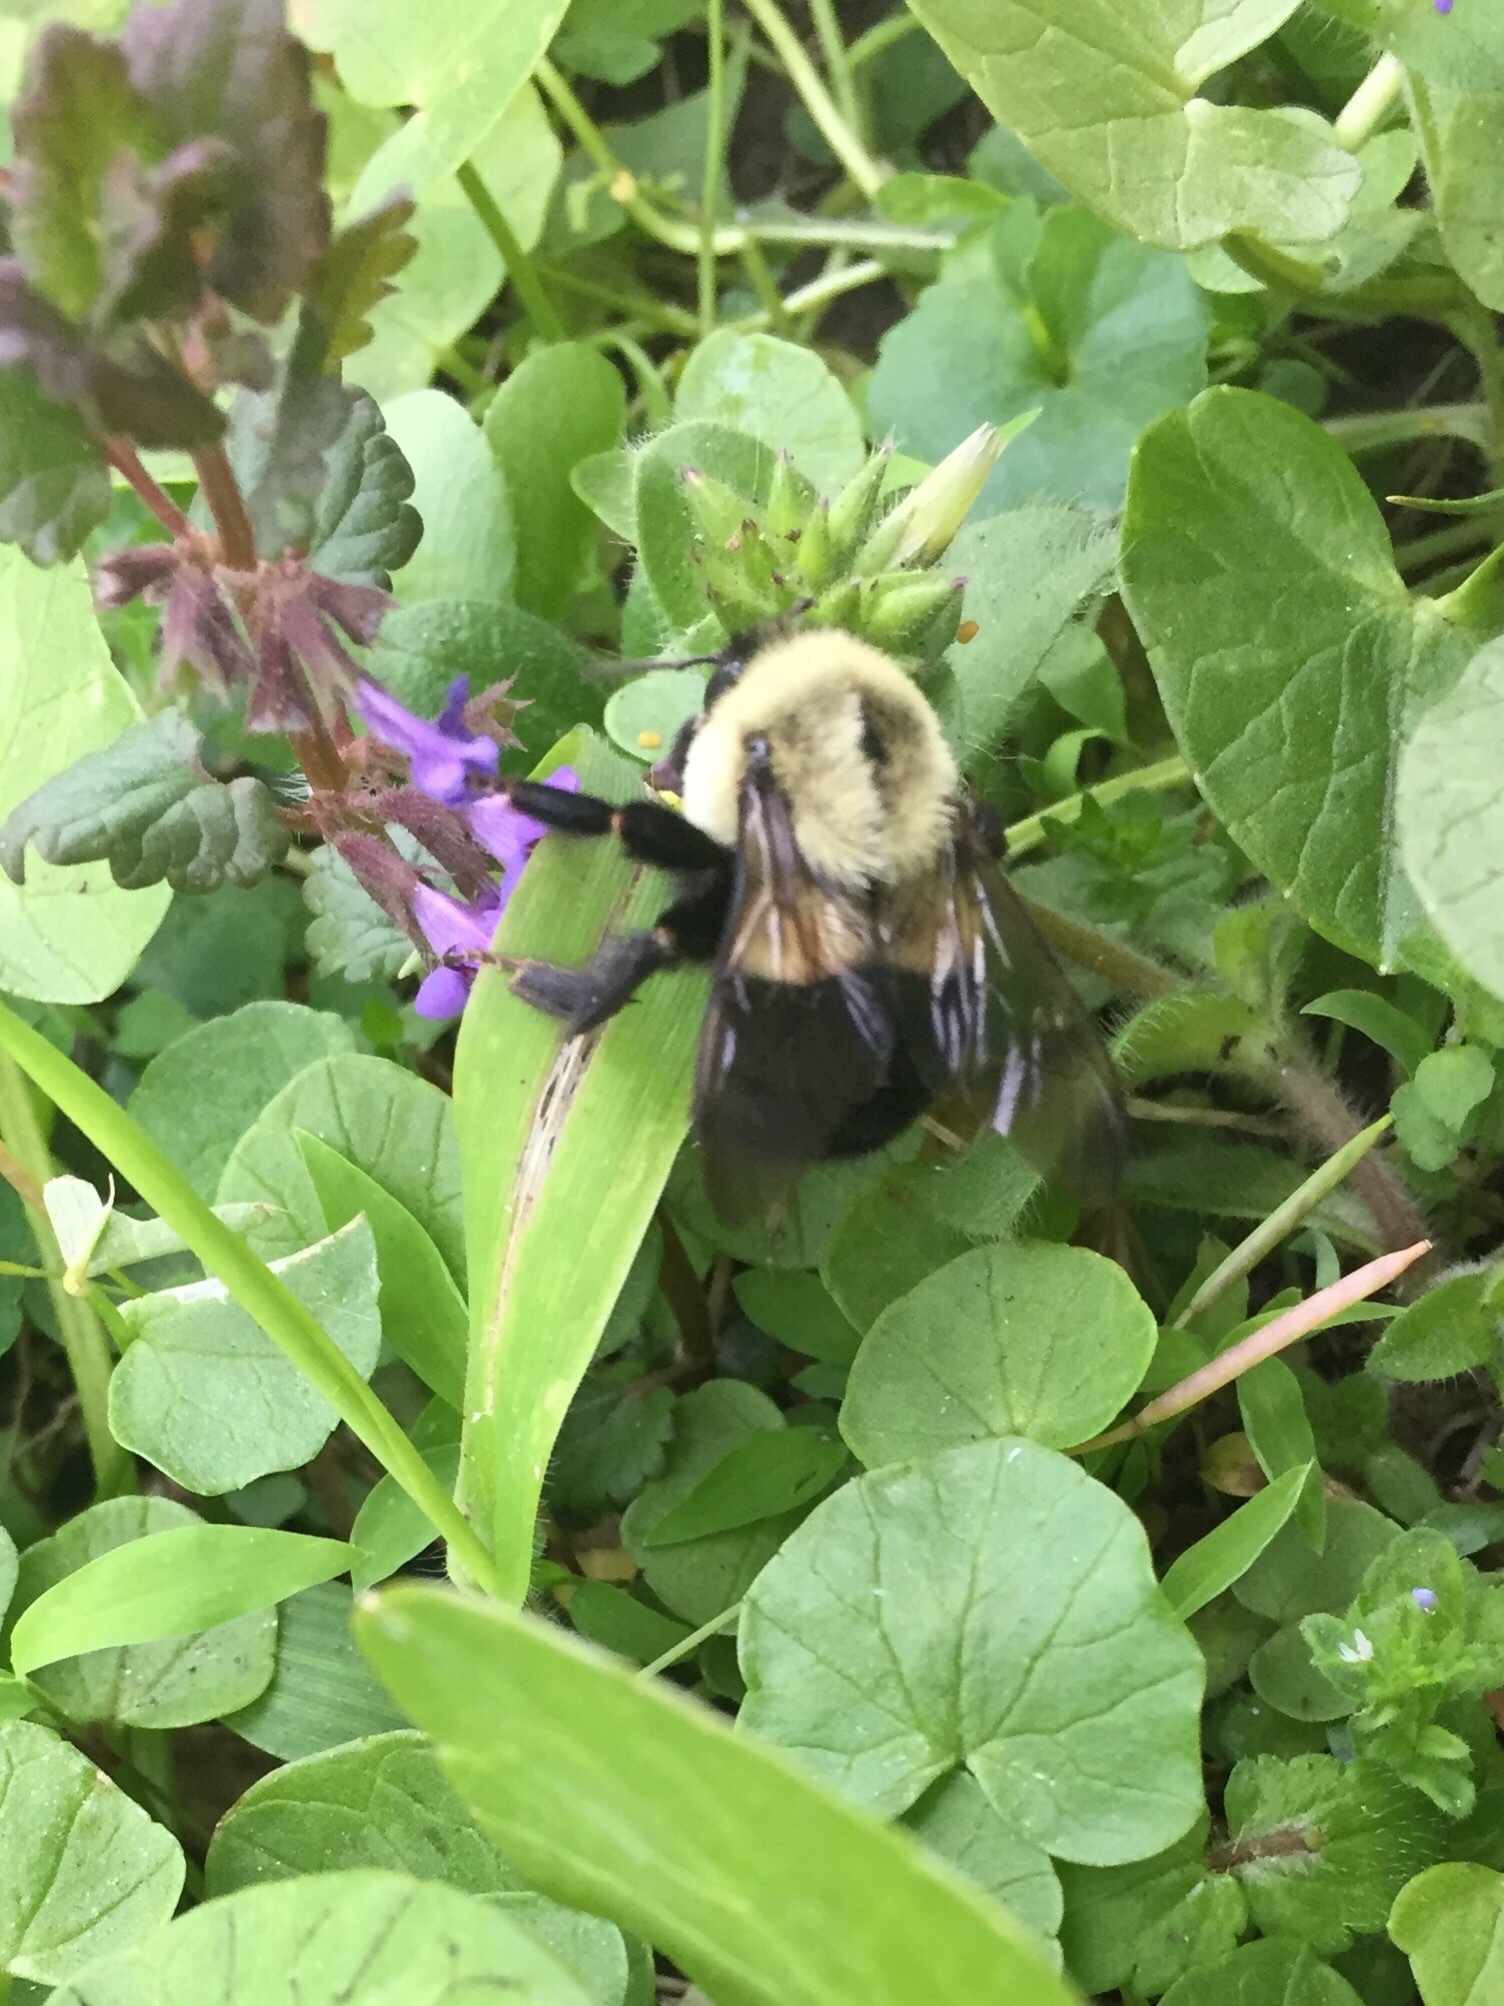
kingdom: Animalia
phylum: Arthropoda
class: Insecta
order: Hymenoptera
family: Apidae
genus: Bombus
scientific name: Bombus impatiens
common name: Common eastern bumble bee
